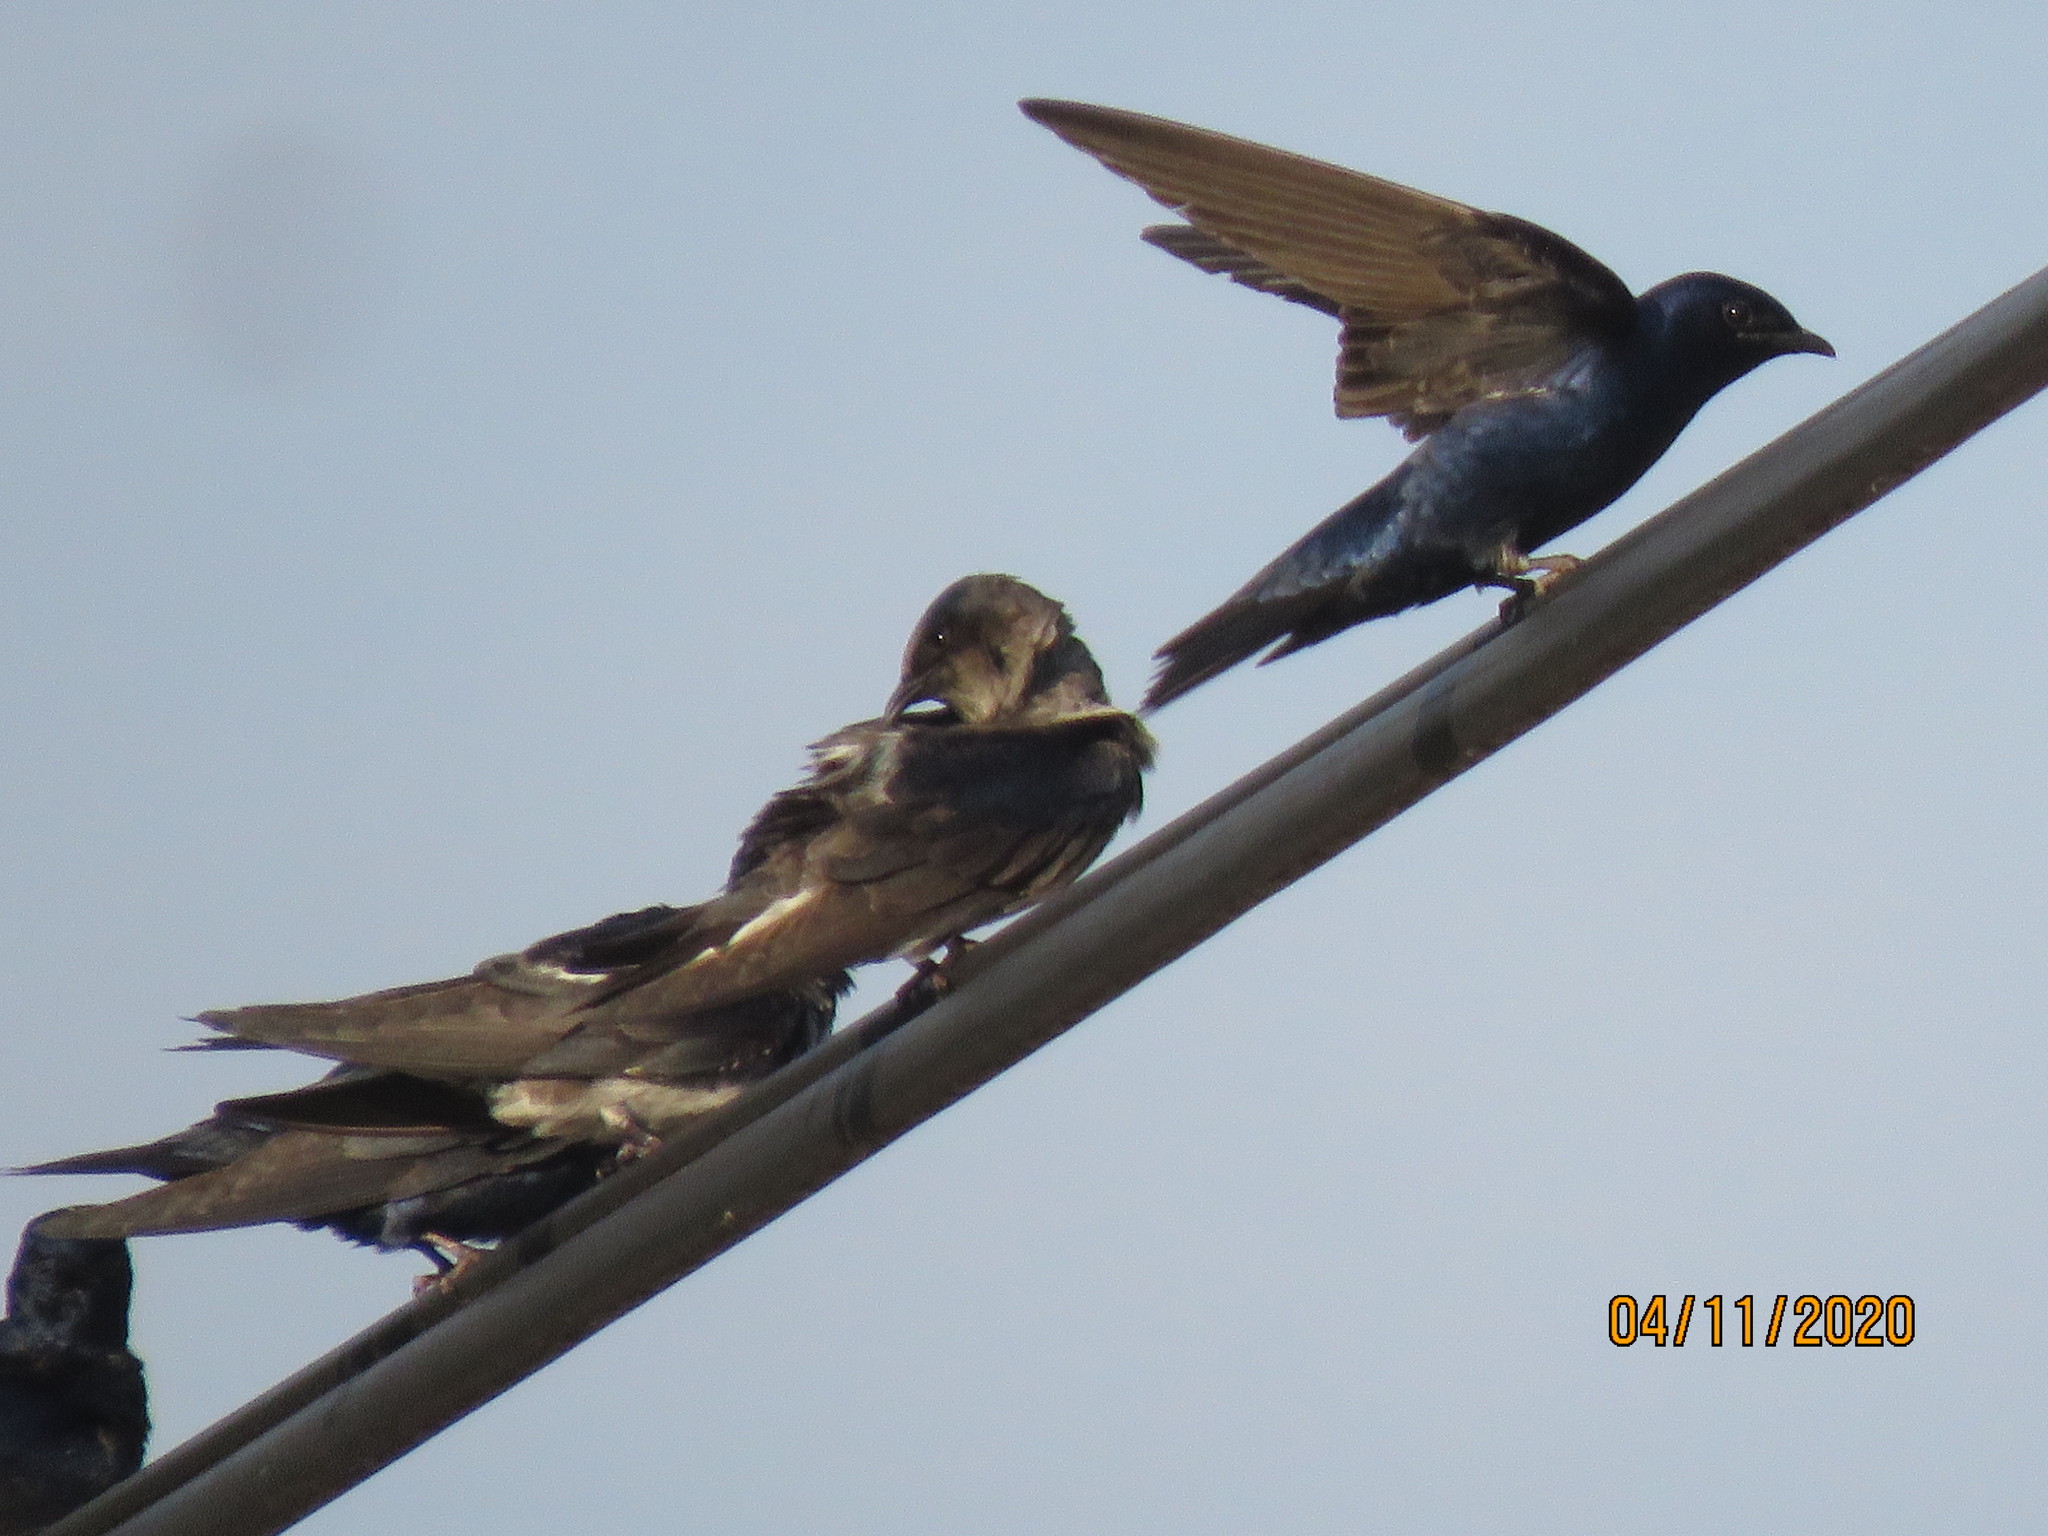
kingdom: Animalia
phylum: Chordata
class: Aves
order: Passeriformes
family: Hirundinidae
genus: Progne
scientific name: Progne subis
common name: Purple martin
